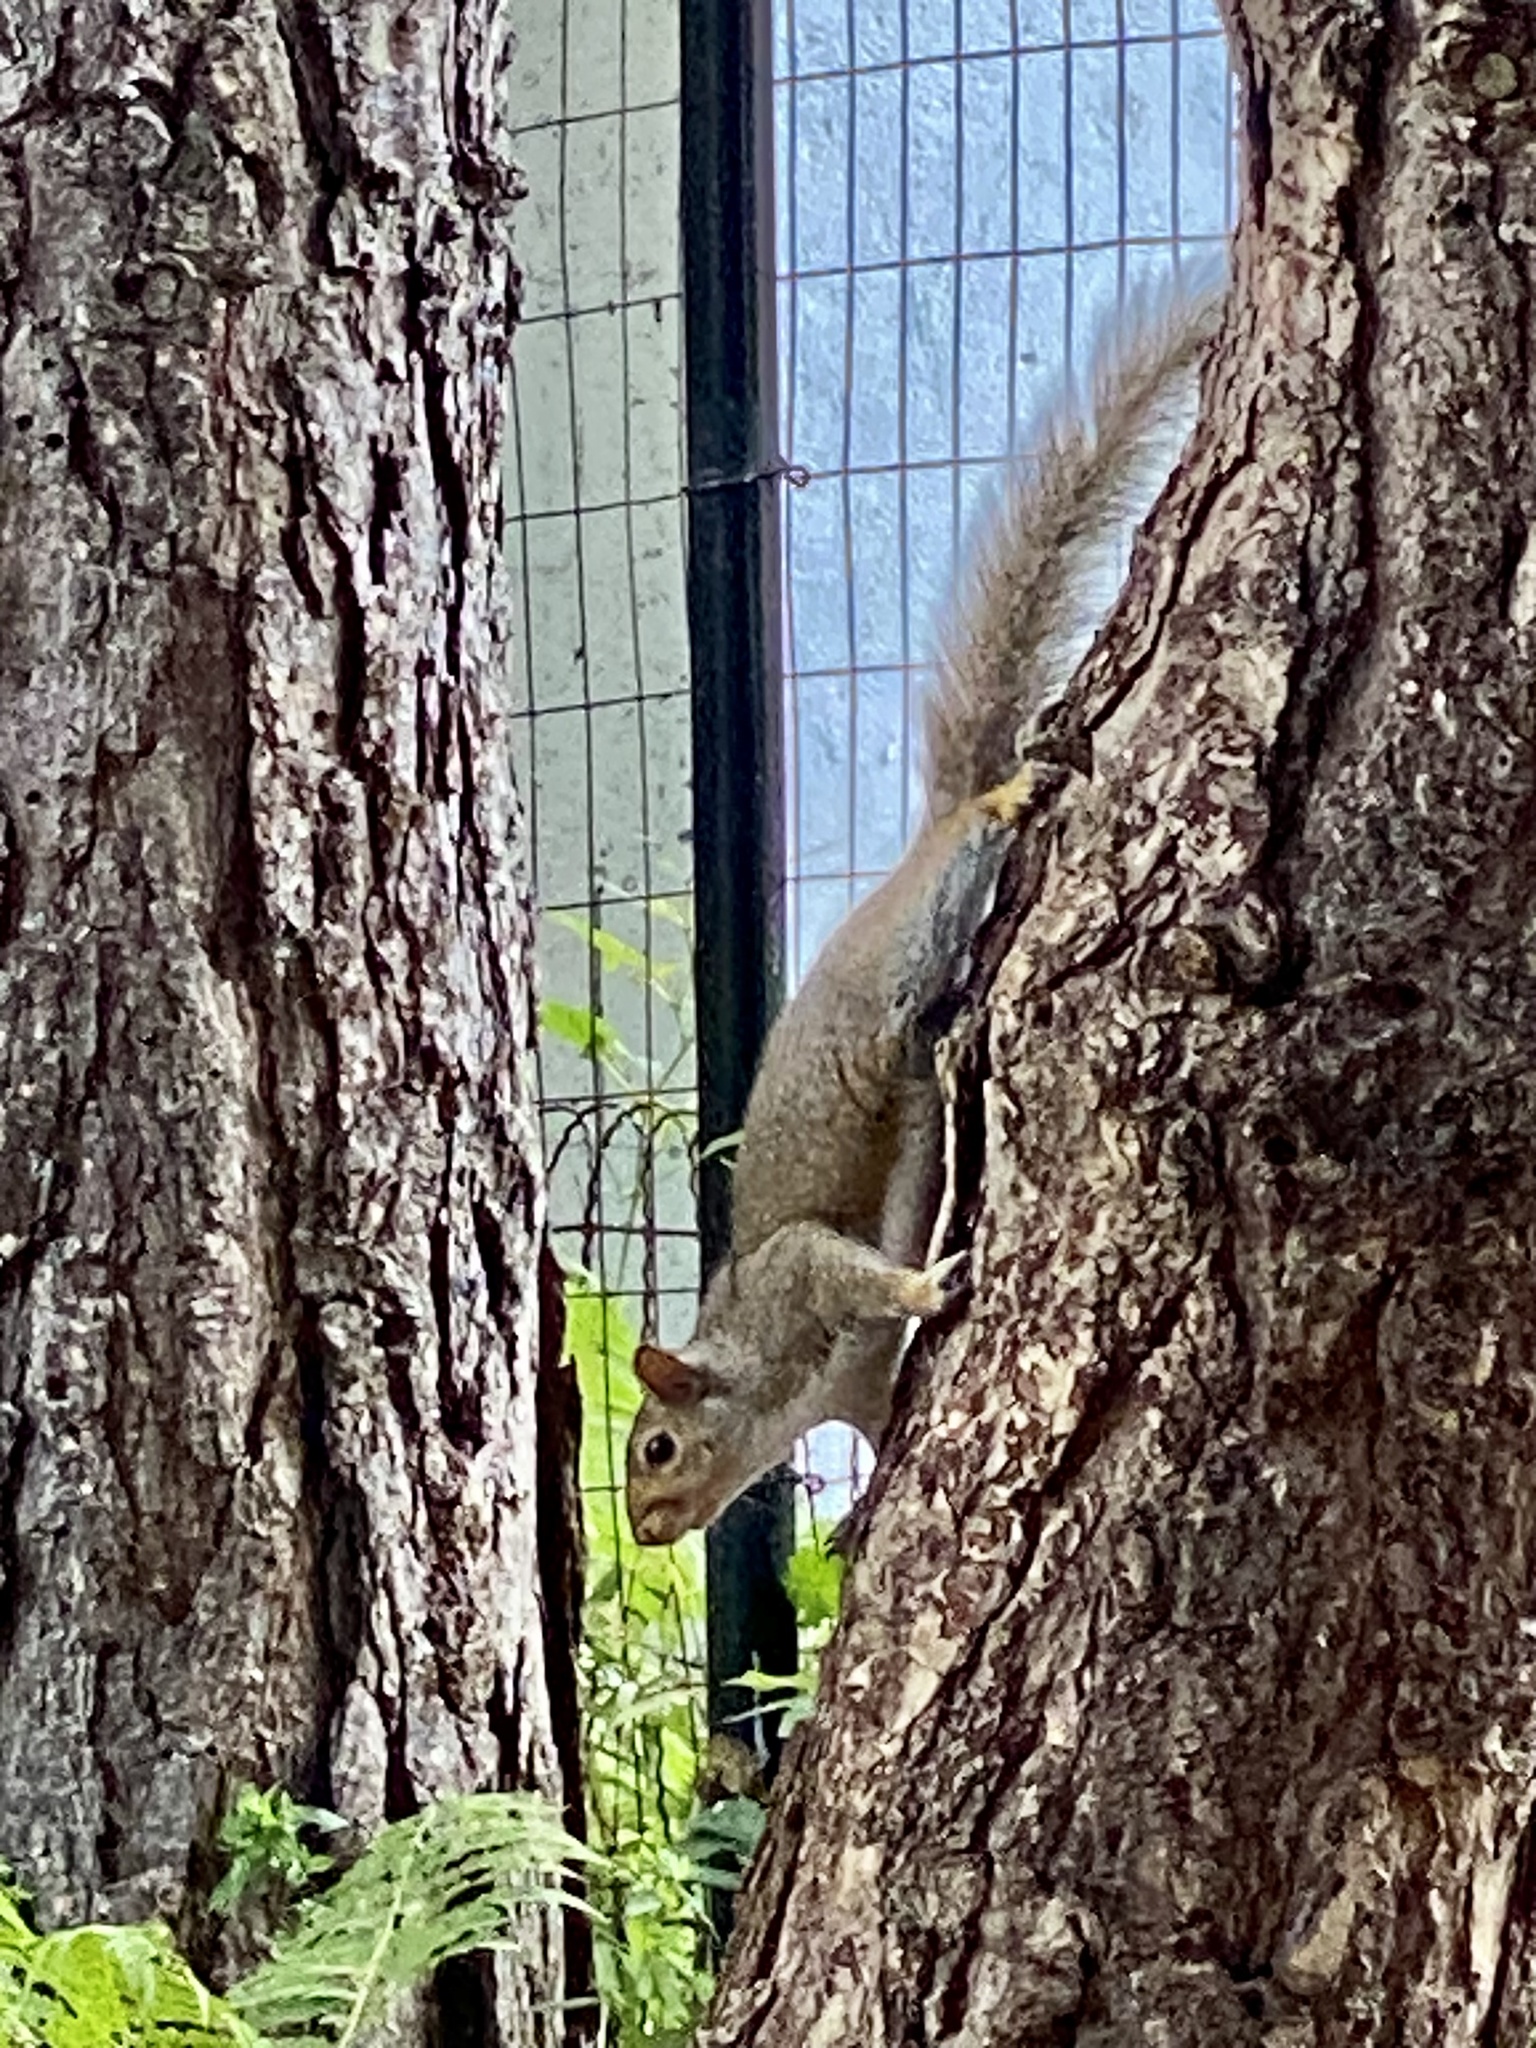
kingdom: Animalia
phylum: Chordata
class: Mammalia
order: Rodentia
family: Sciuridae
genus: Sciurus
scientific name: Sciurus carolinensis
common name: Eastern gray squirrel
